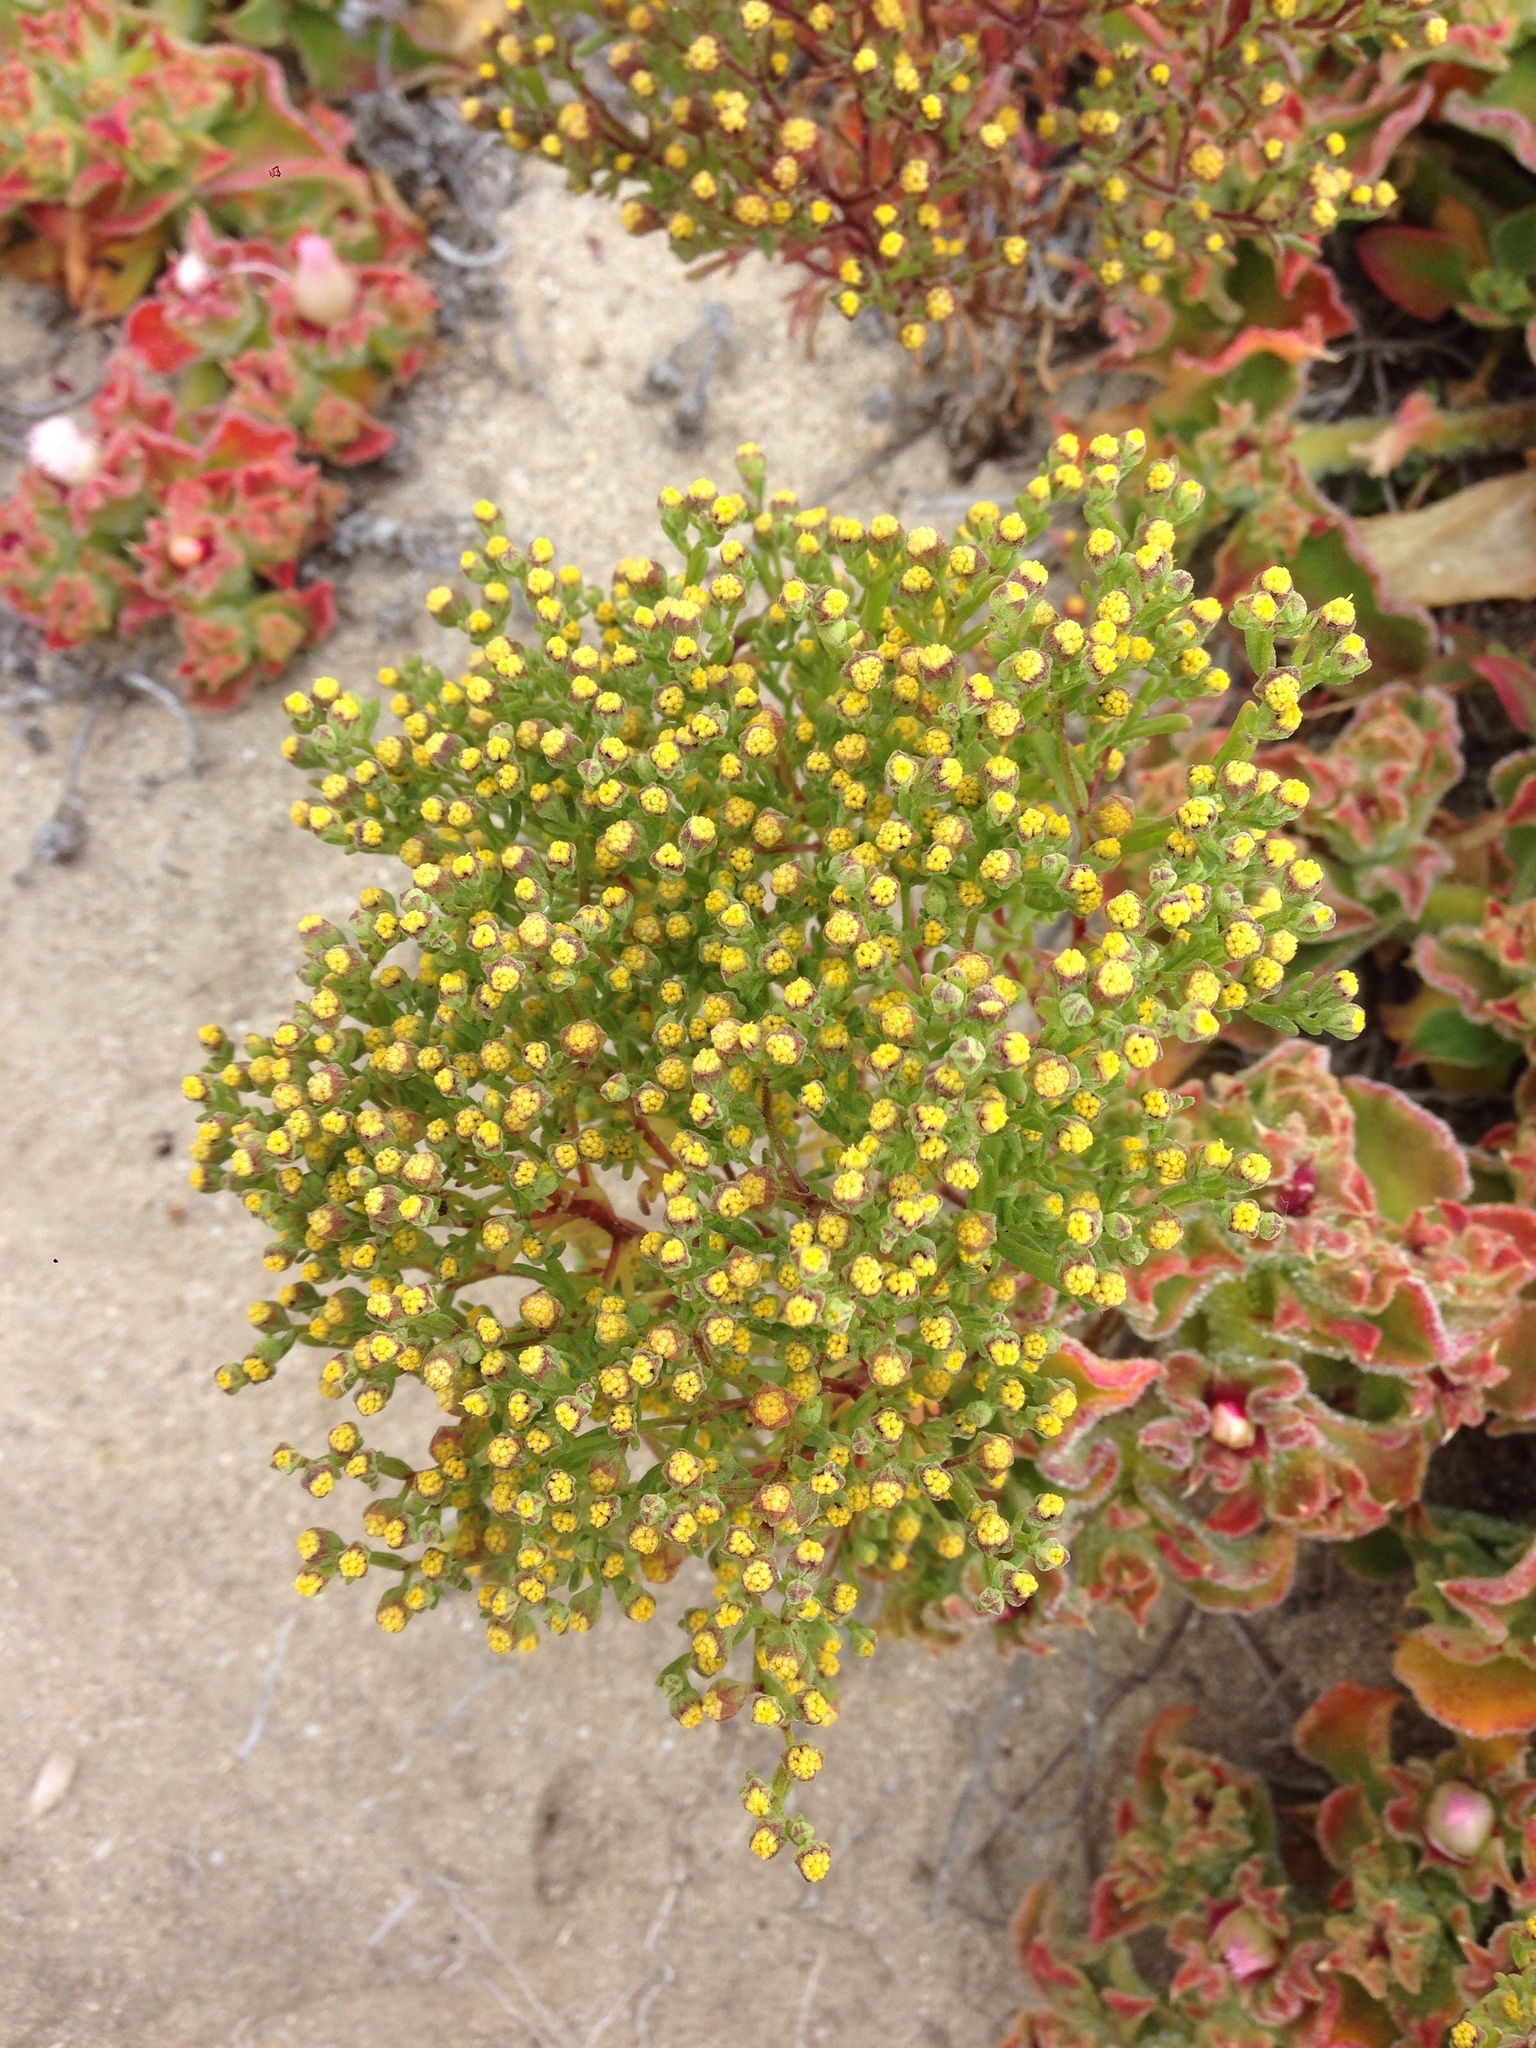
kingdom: Plantae
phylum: Tracheophyta
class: Magnoliopsida
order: Asterales
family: Asteraceae
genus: Amblyopappus
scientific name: Amblyopappus pusillus
